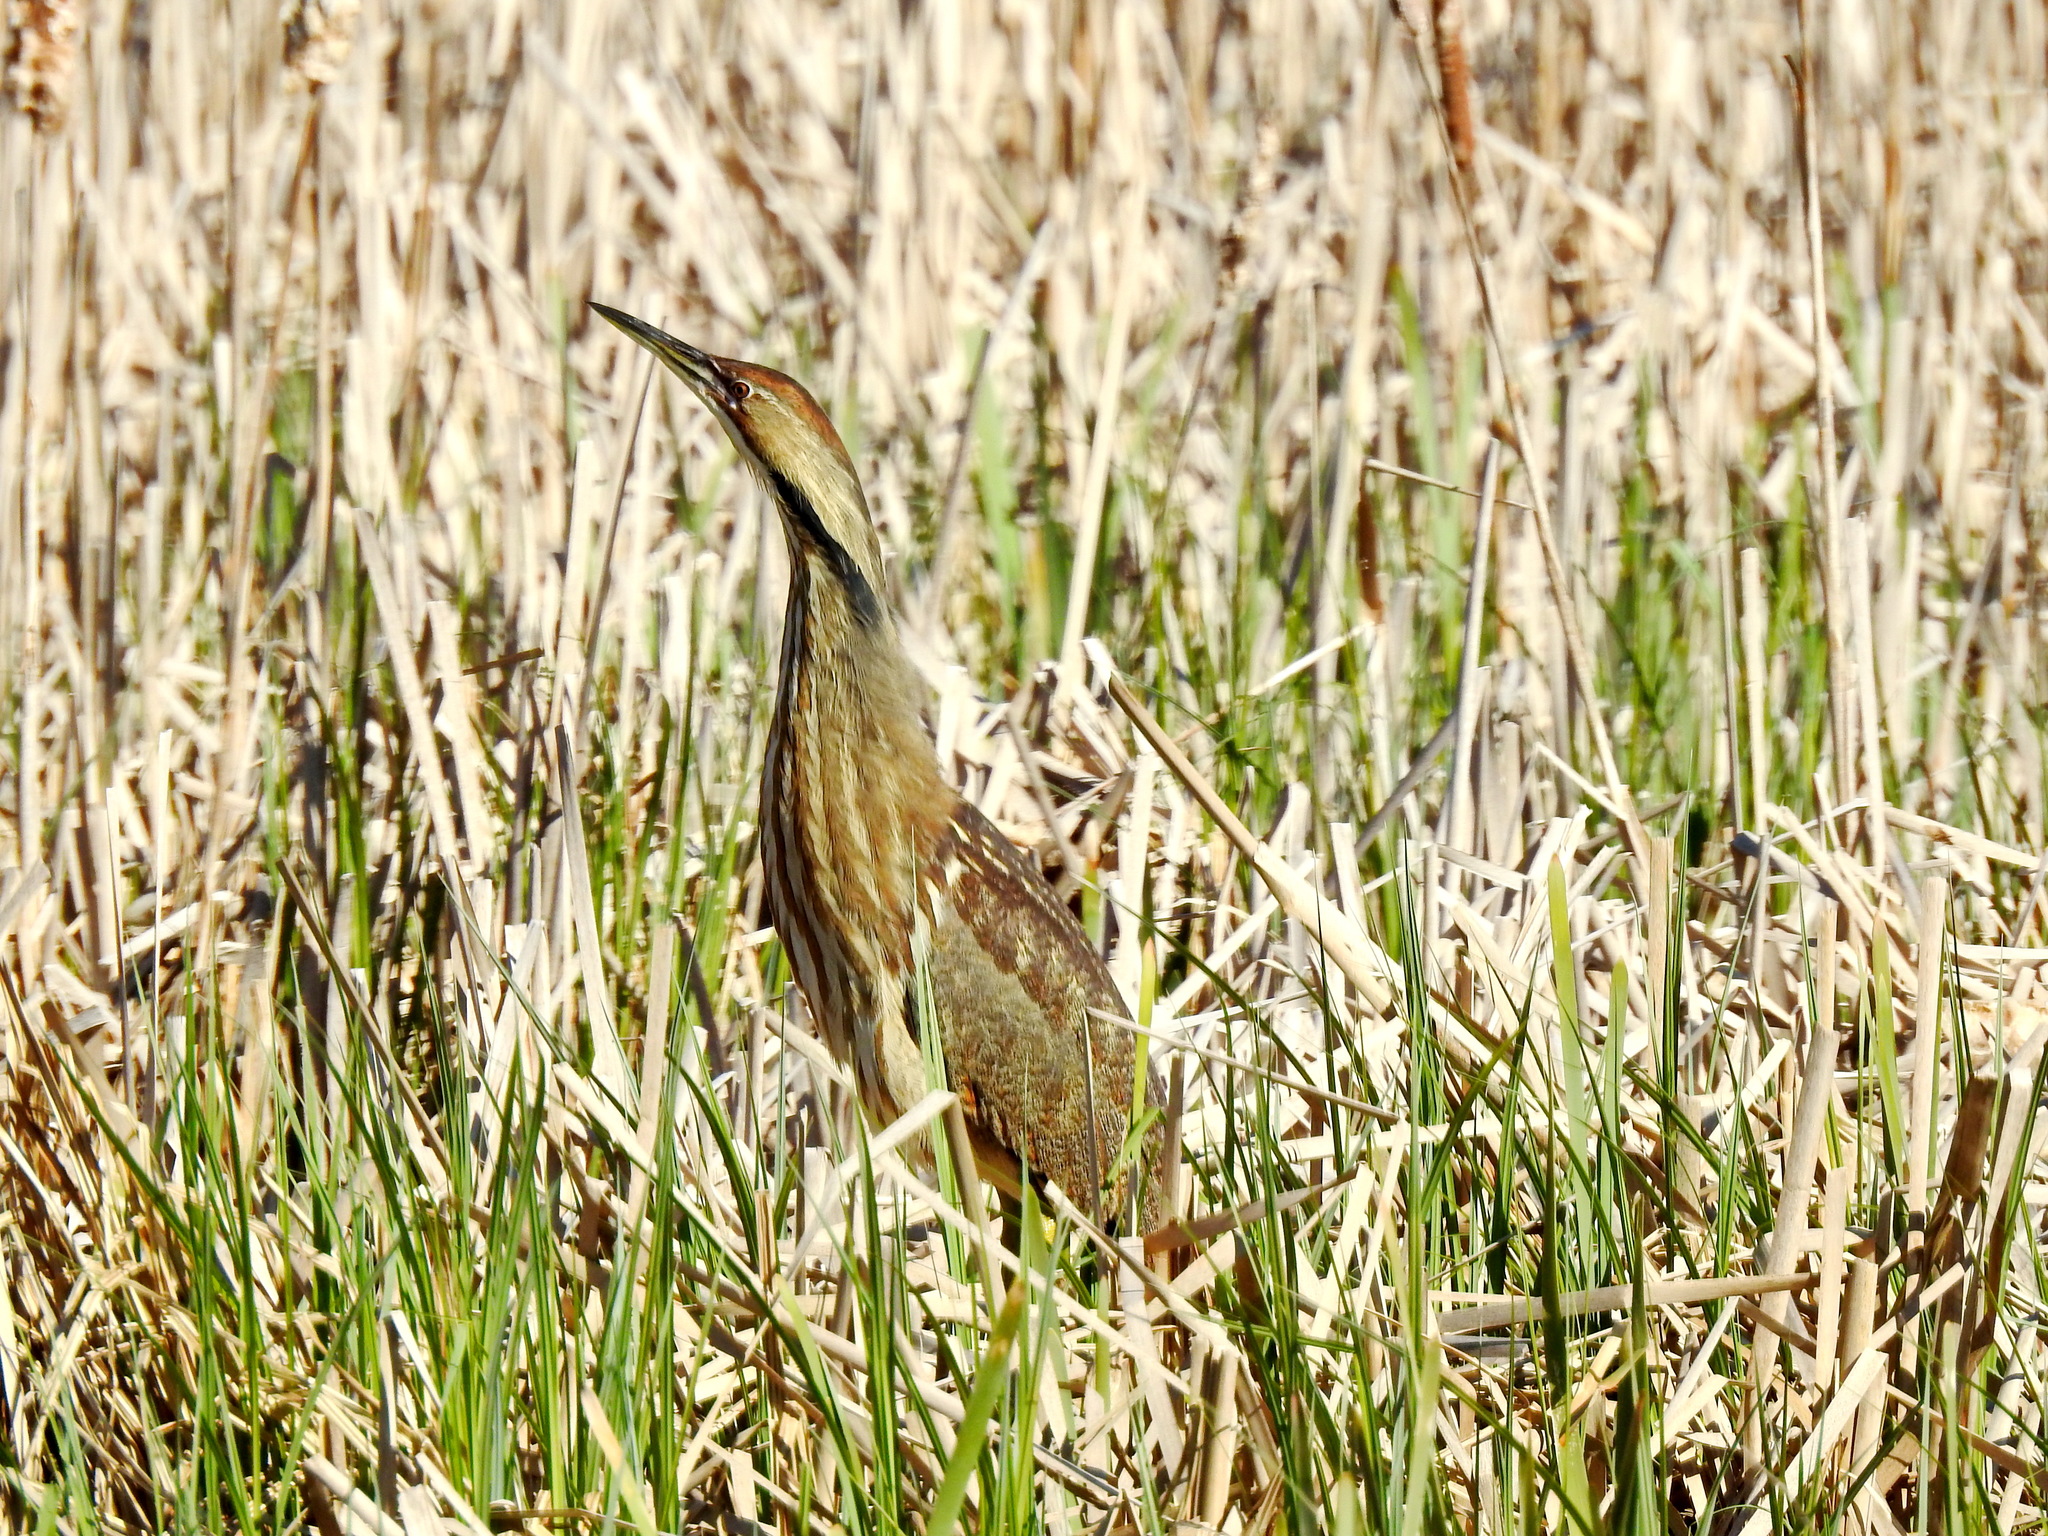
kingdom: Animalia
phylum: Chordata
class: Aves
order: Pelecaniformes
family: Ardeidae
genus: Botaurus
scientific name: Botaurus lentiginosus
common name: American bittern
